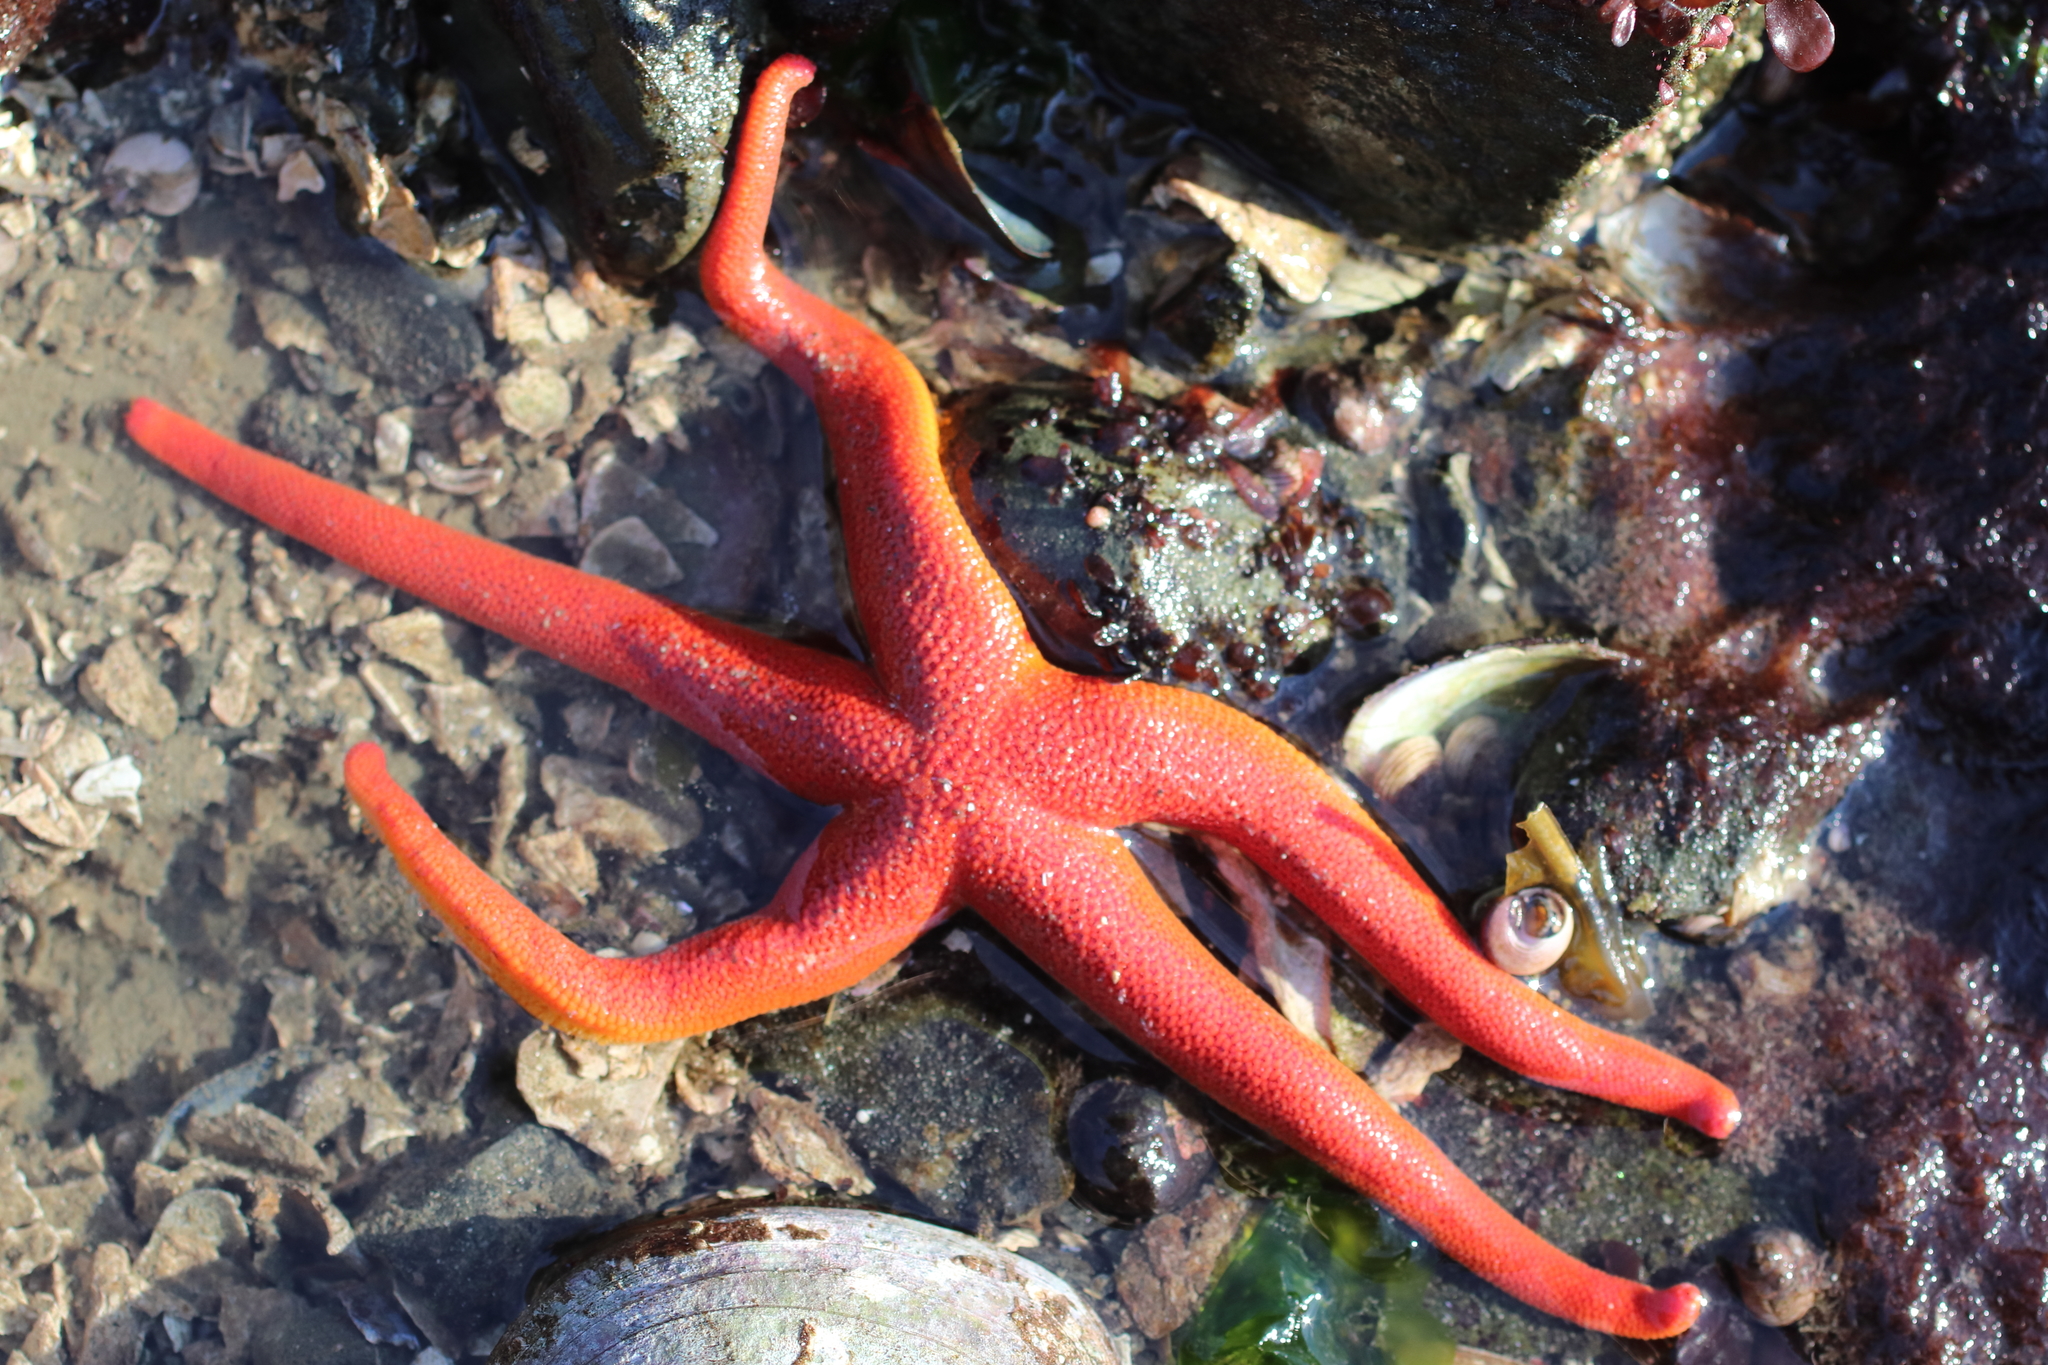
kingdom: Animalia
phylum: Echinodermata
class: Asteroidea
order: Spinulosida
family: Echinasteridae
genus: Henricia
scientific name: Henricia
